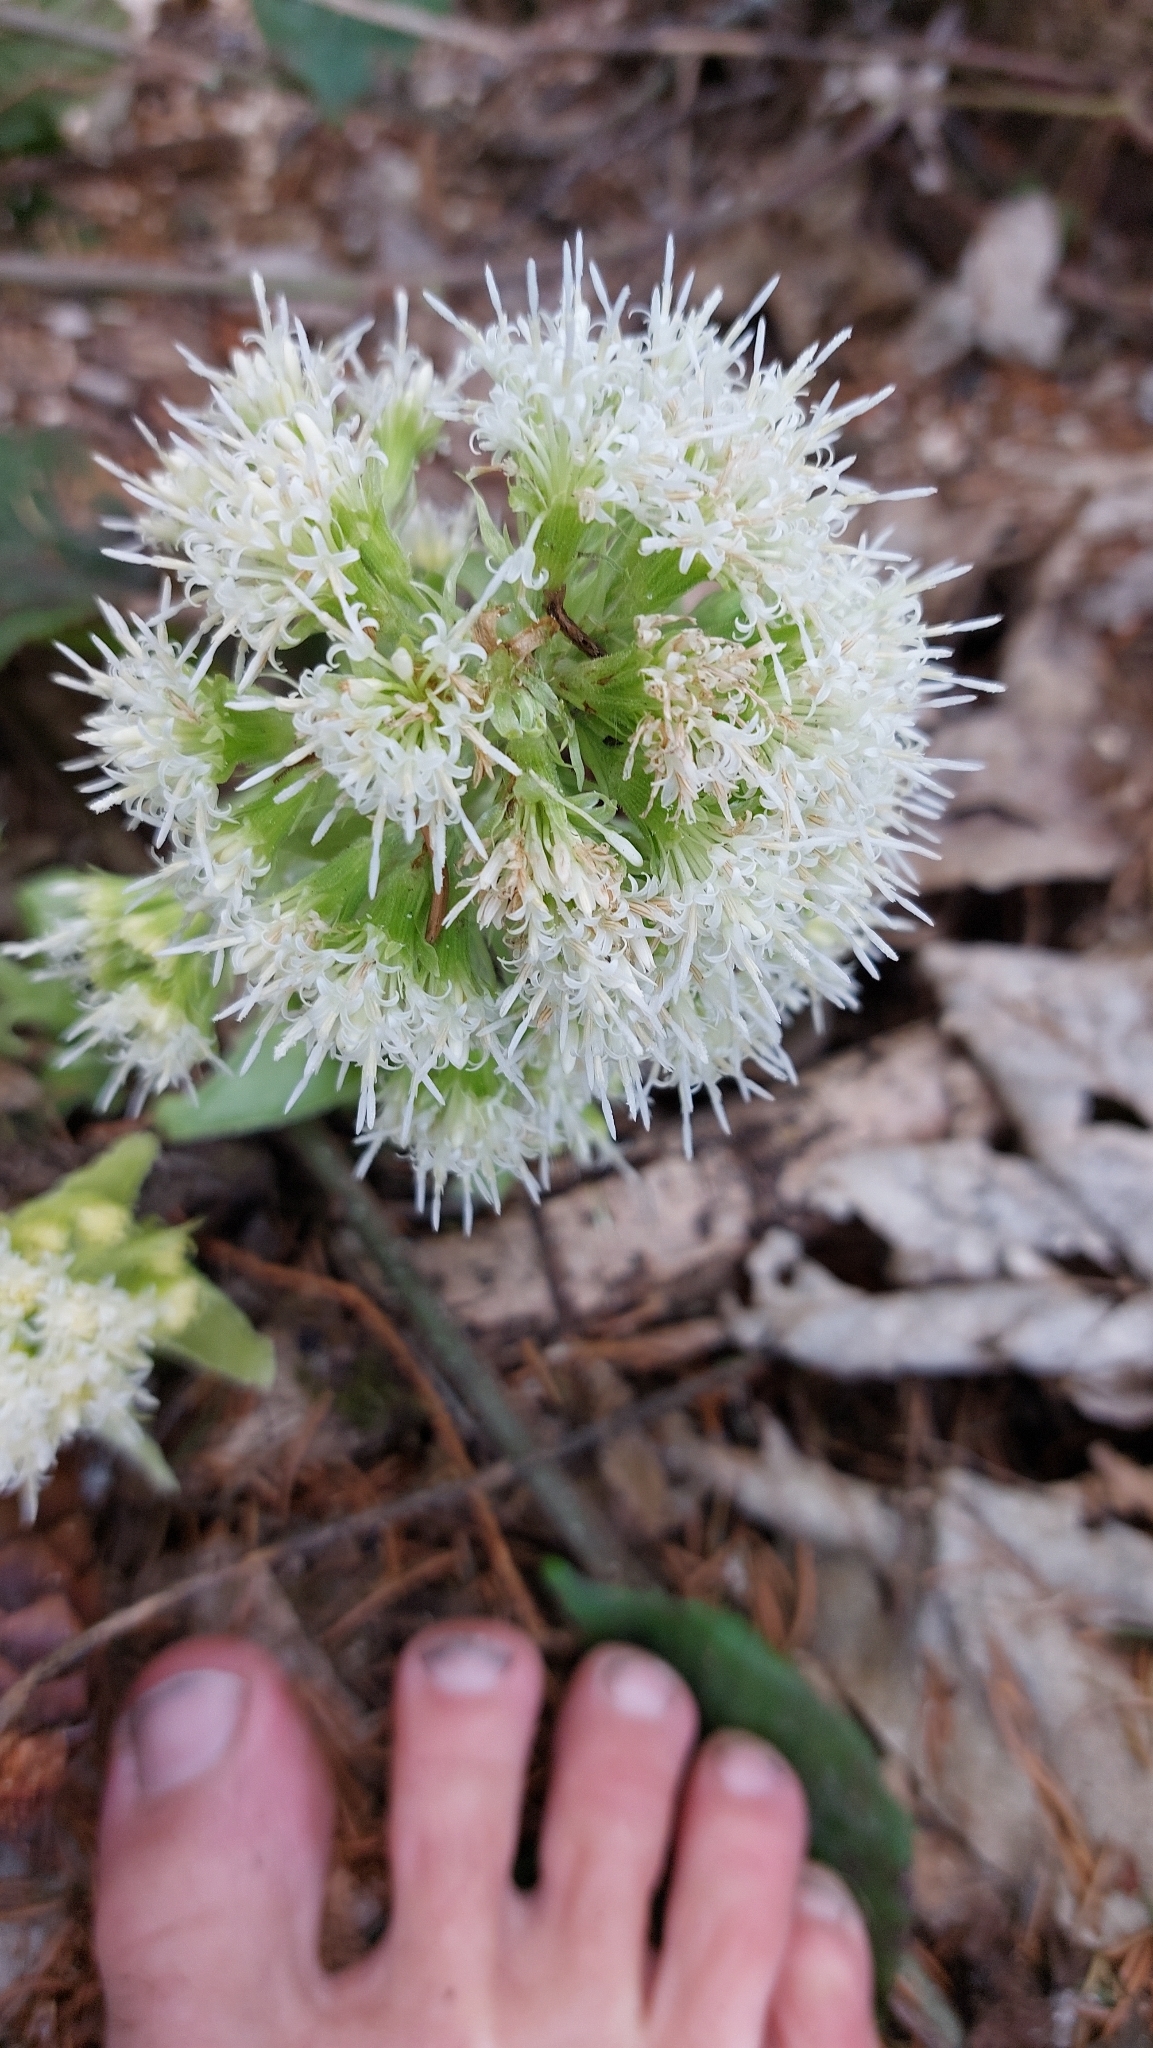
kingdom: Plantae
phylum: Tracheophyta
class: Magnoliopsida
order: Asterales
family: Asteraceae
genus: Petasites
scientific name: Petasites albus
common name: White butterbur
